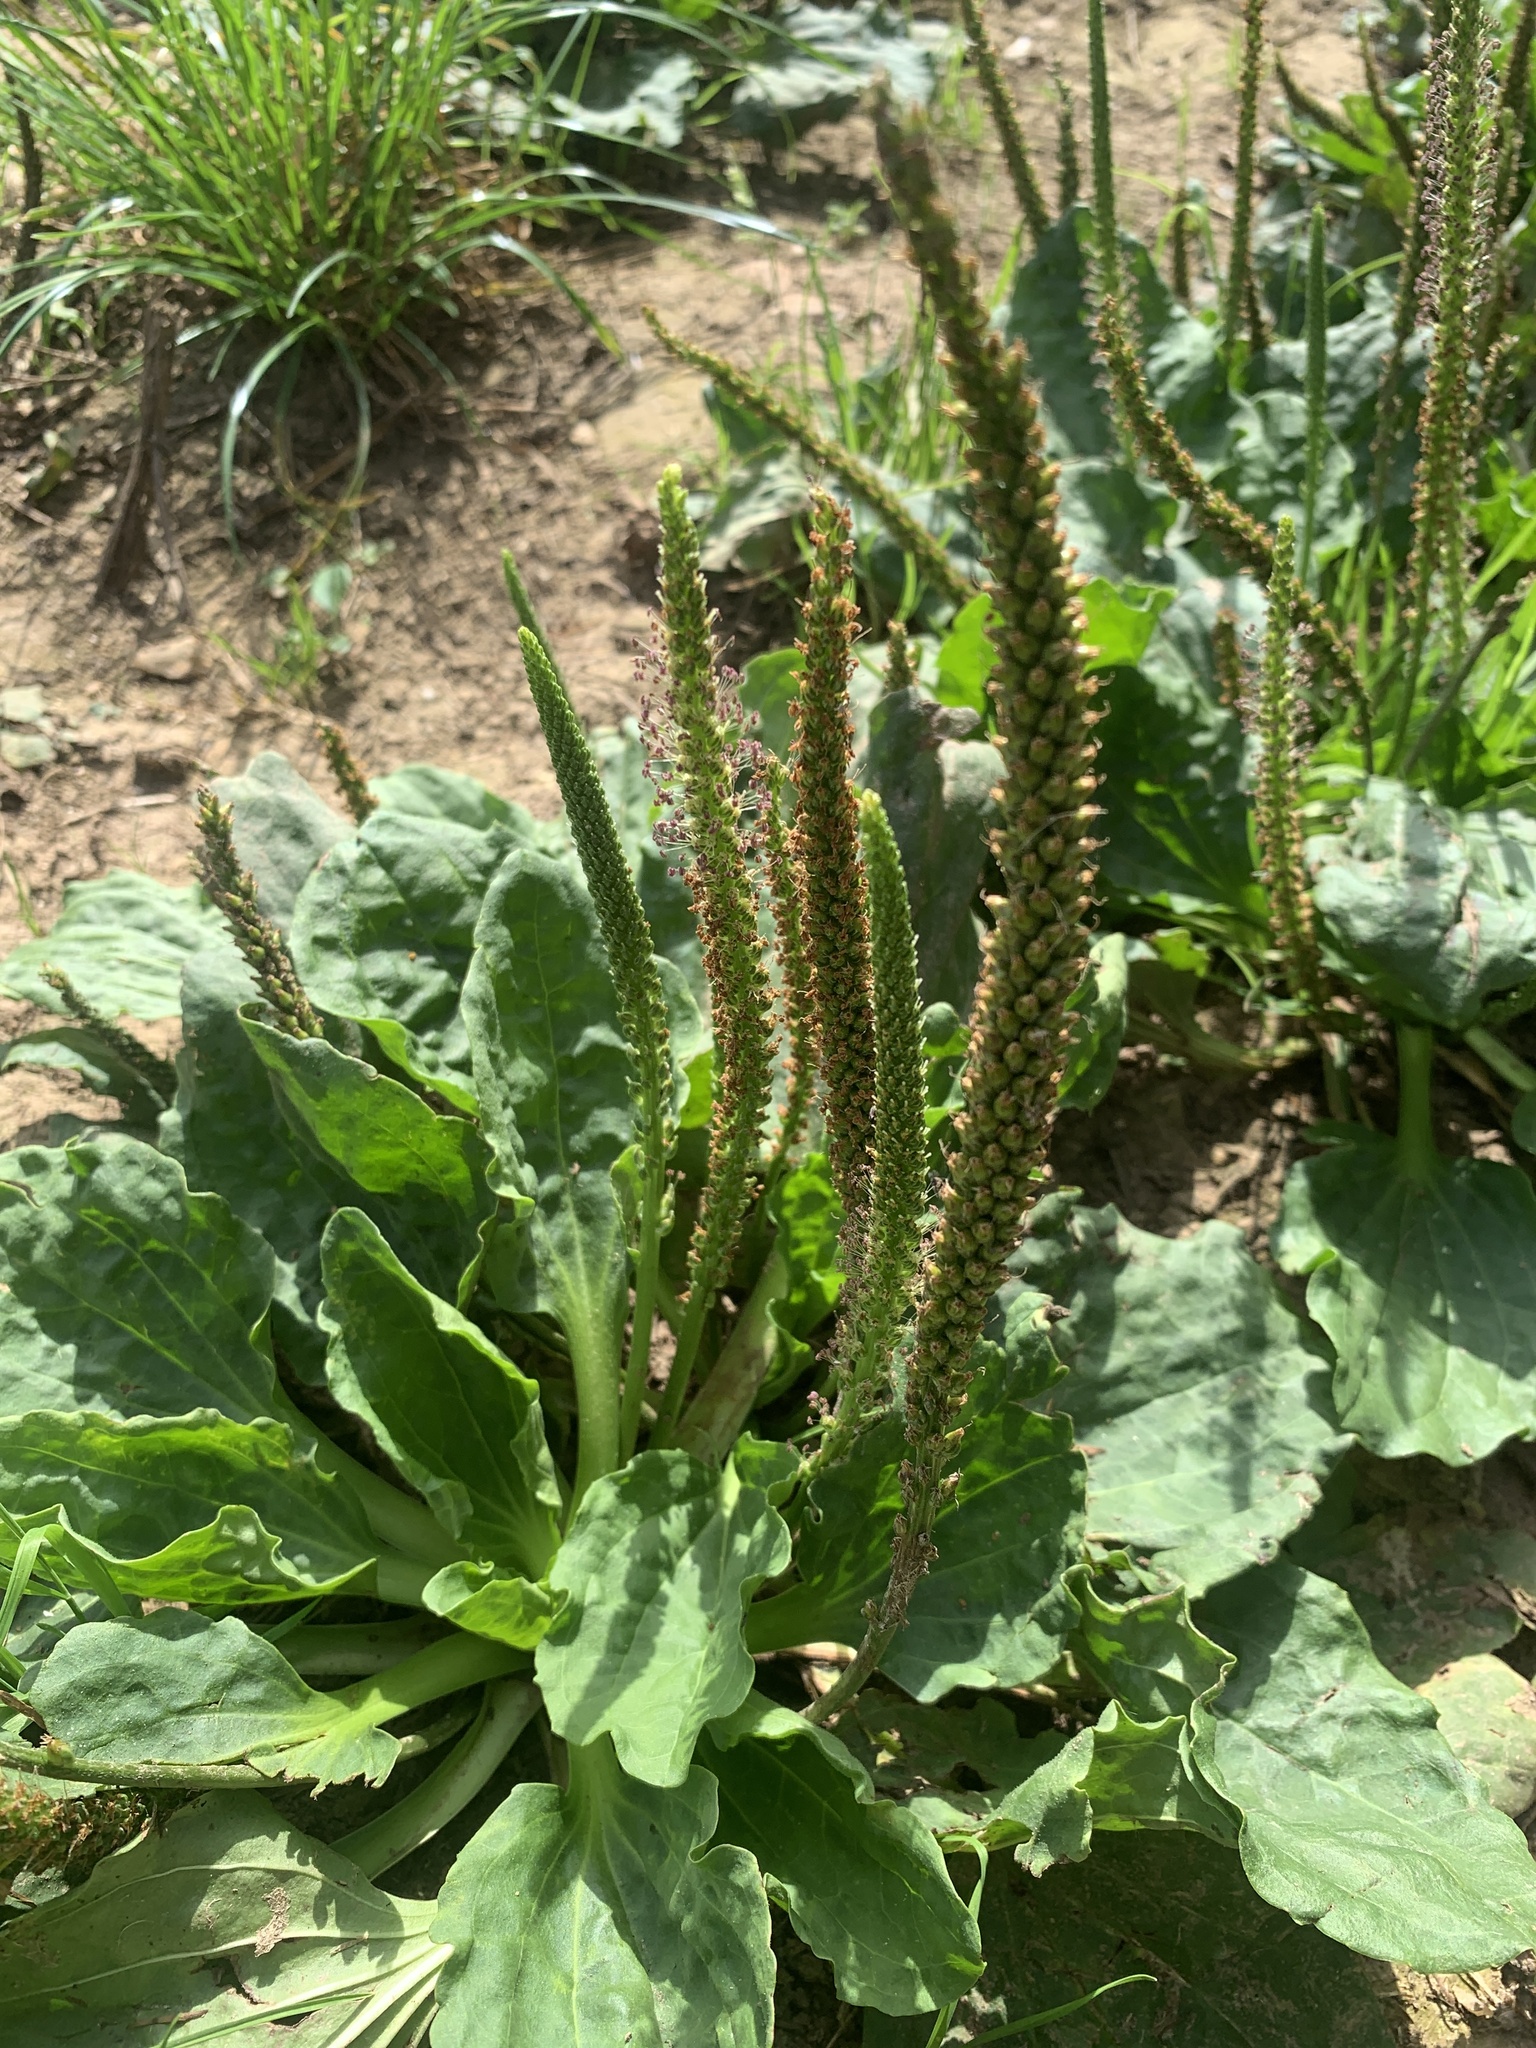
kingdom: Plantae
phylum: Tracheophyta
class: Magnoliopsida
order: Lamiales
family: Plantaginaceae
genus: Plantago
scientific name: Plantago major
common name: Common plantain
